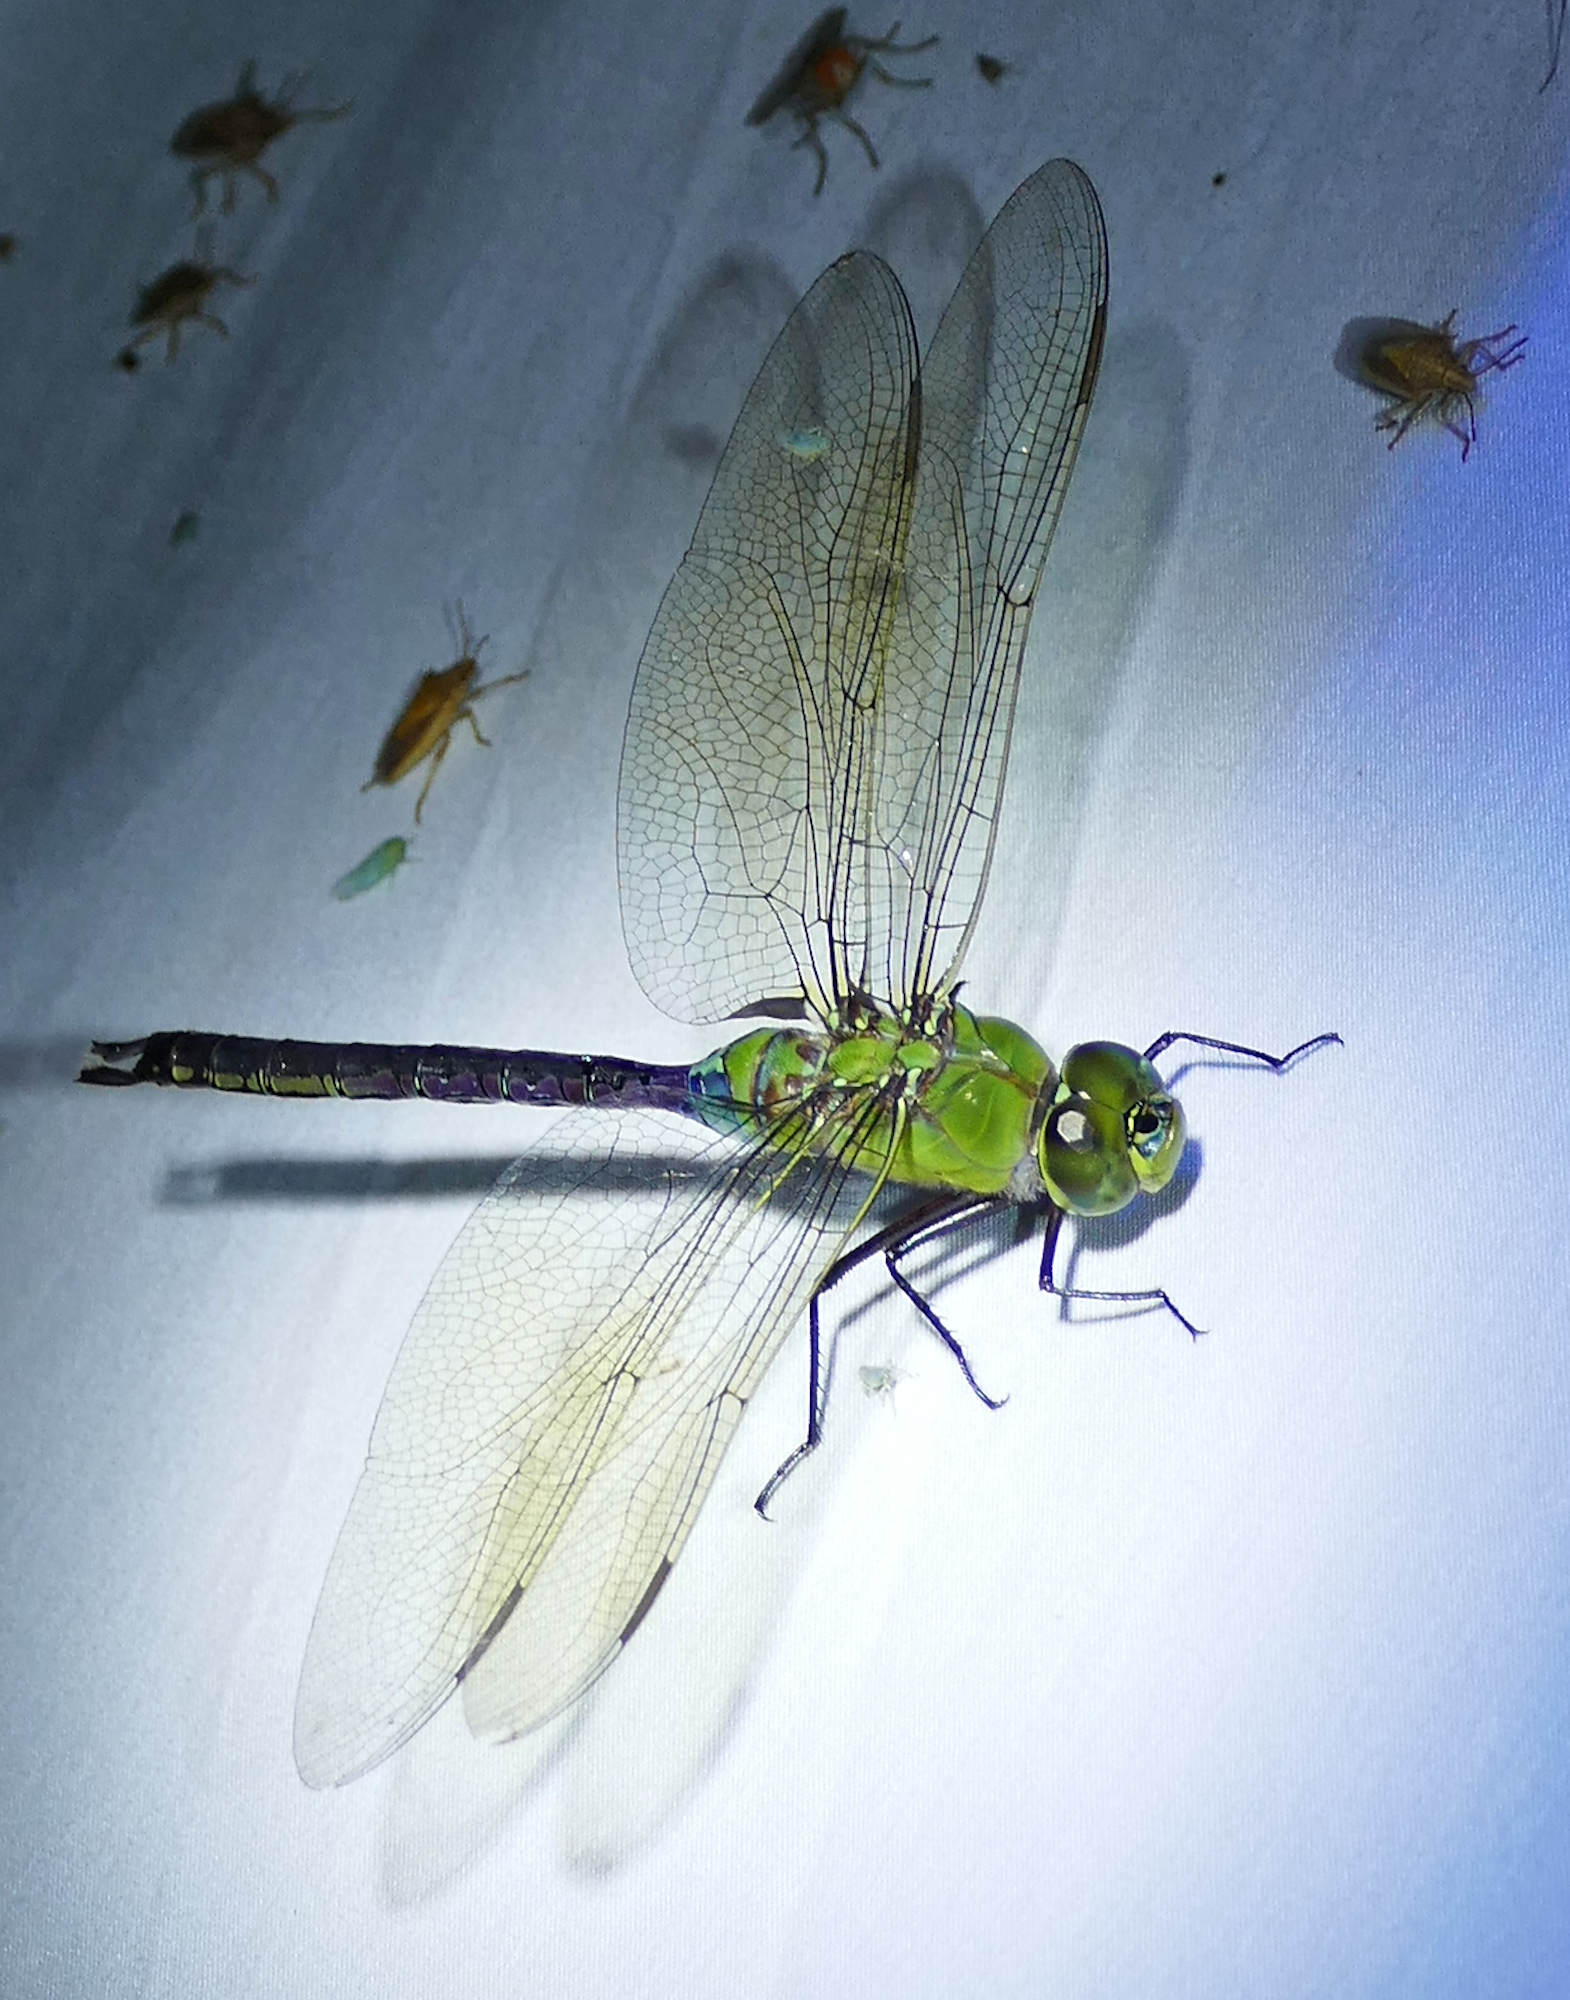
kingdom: Animalia
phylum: Arthropoda
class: Insecta
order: Odonata
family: Aeshnidae
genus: Anax
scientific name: Anax junius
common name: Common green darner
